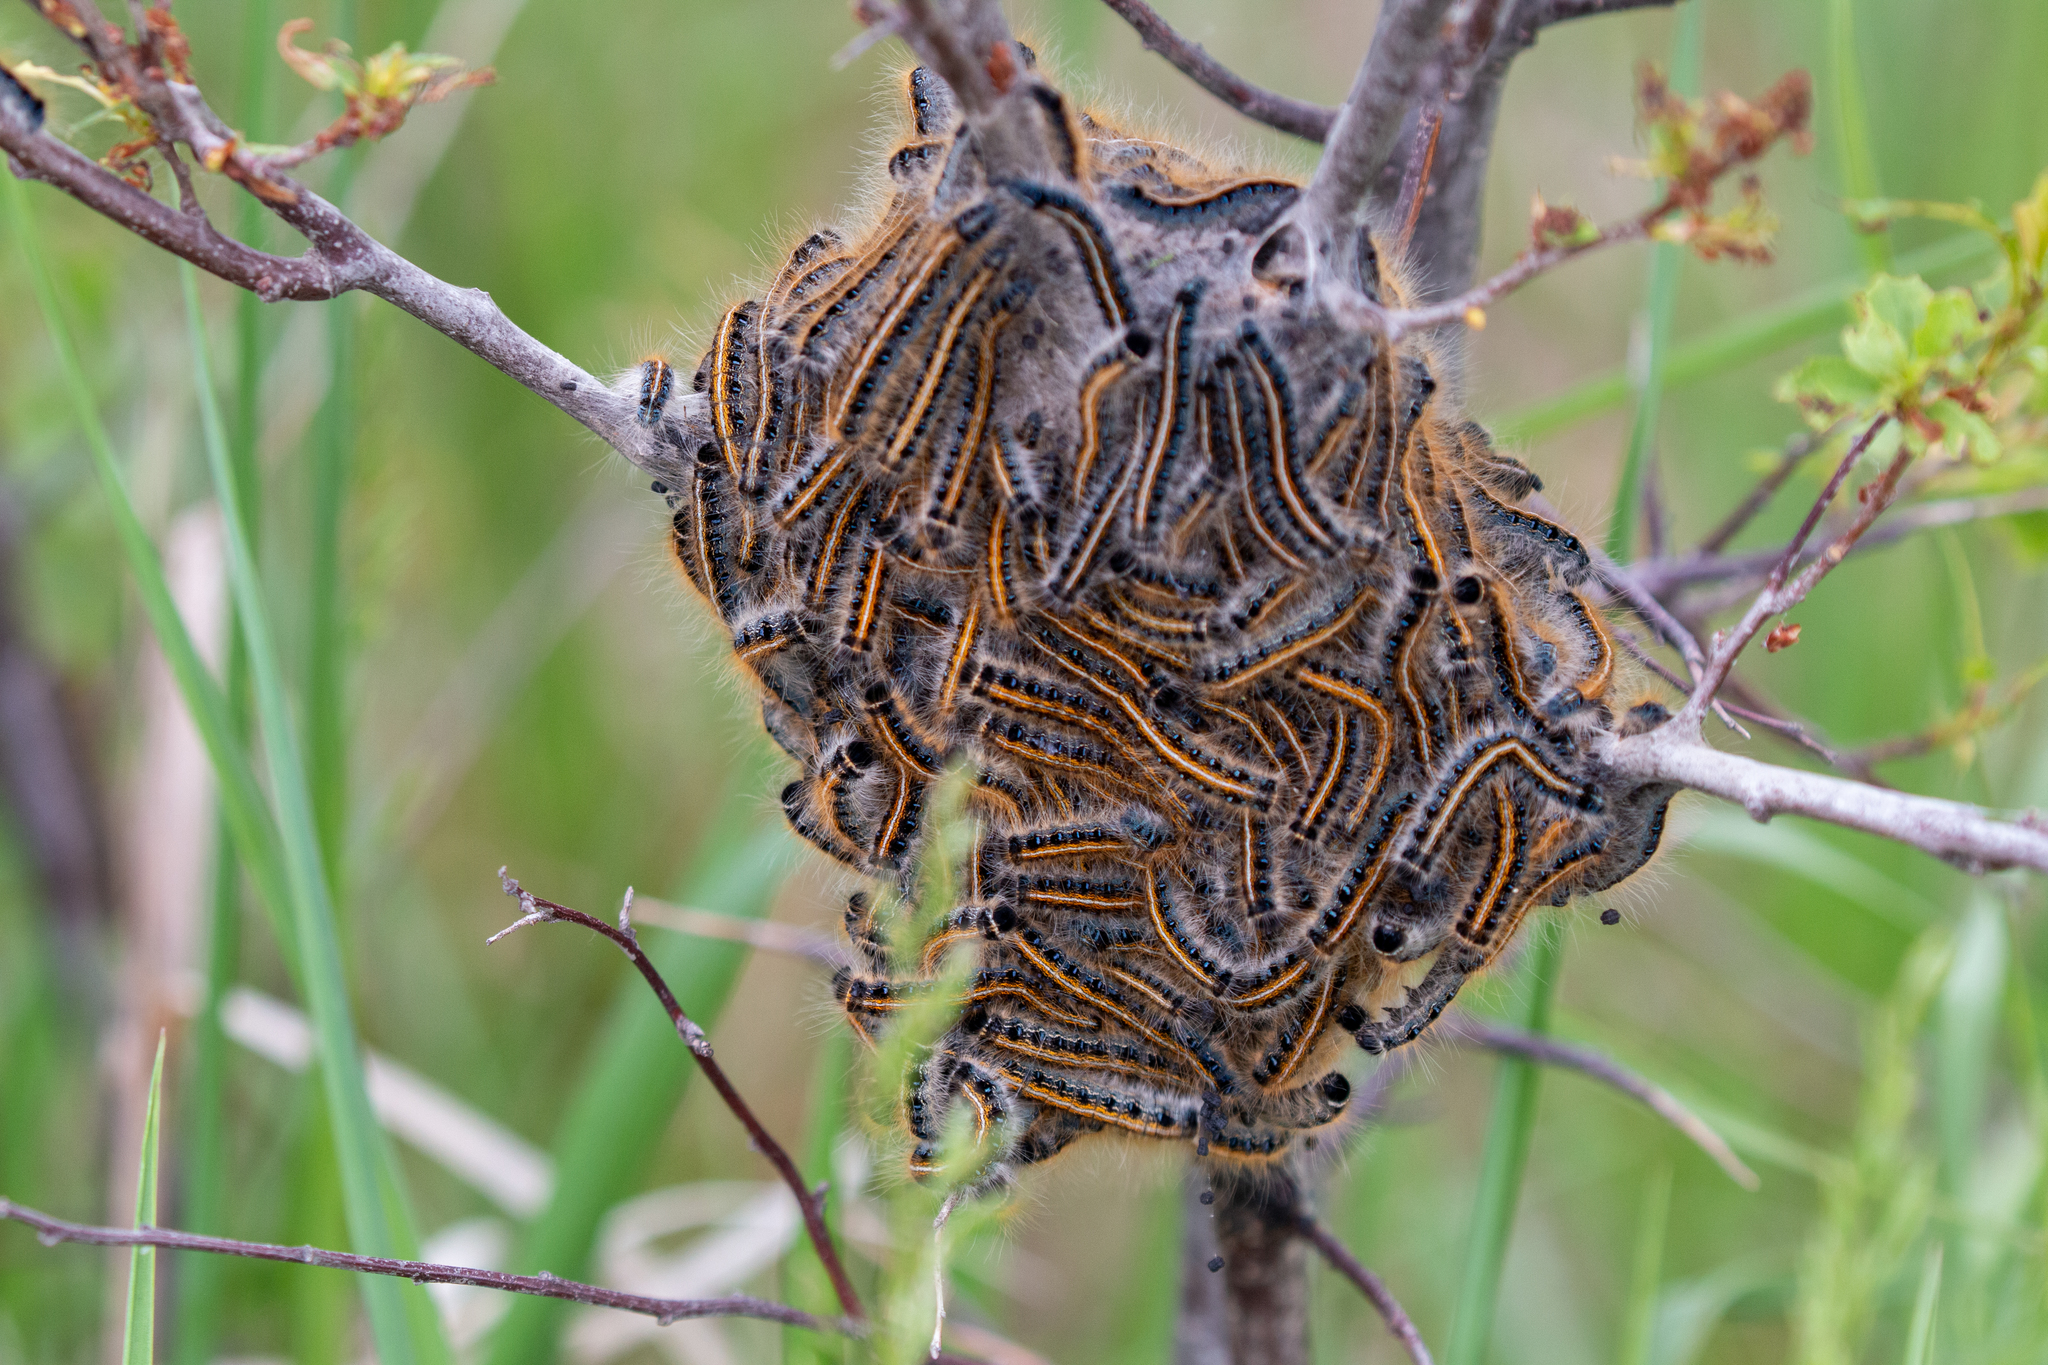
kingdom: Animalia
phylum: Arthropoda
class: Insecta
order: Lepidoptera
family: Lasiocampidae
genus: Malacosoma
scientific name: Malacosoma americana
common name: Eastern tent caterpillar moth
